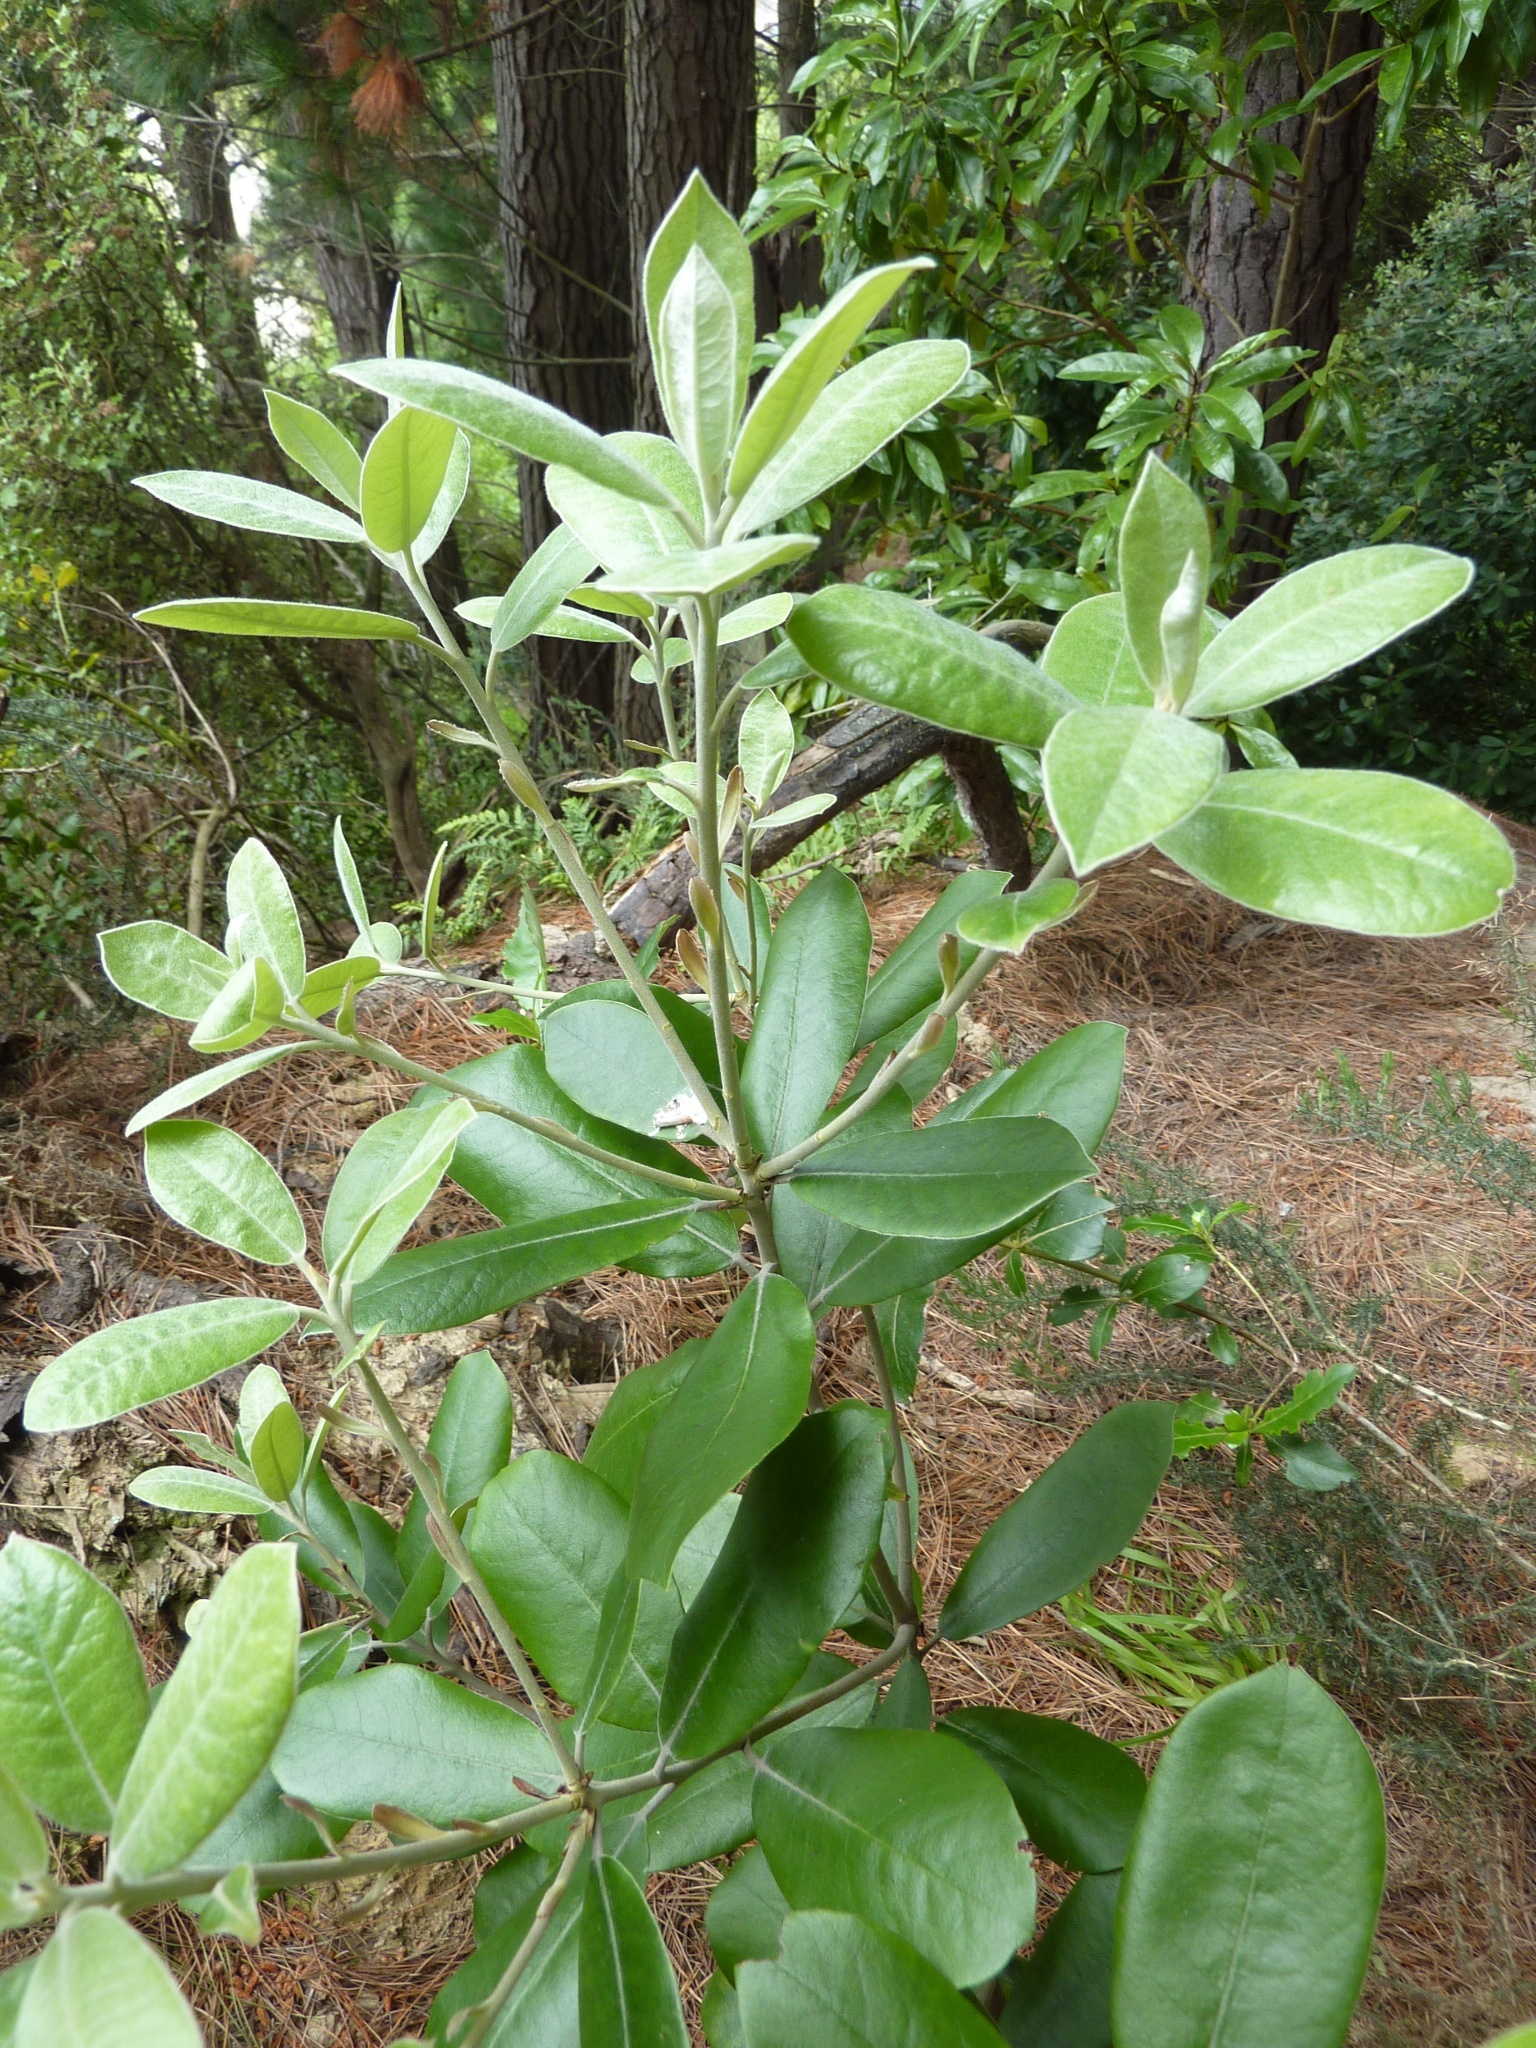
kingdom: Plantae
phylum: Tracheophyta
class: Magnoliopsida
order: Apiales
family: Pittosporaceae
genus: Pittosporum
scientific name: Pittosporum ralphii
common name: Ralph's desertwillow
